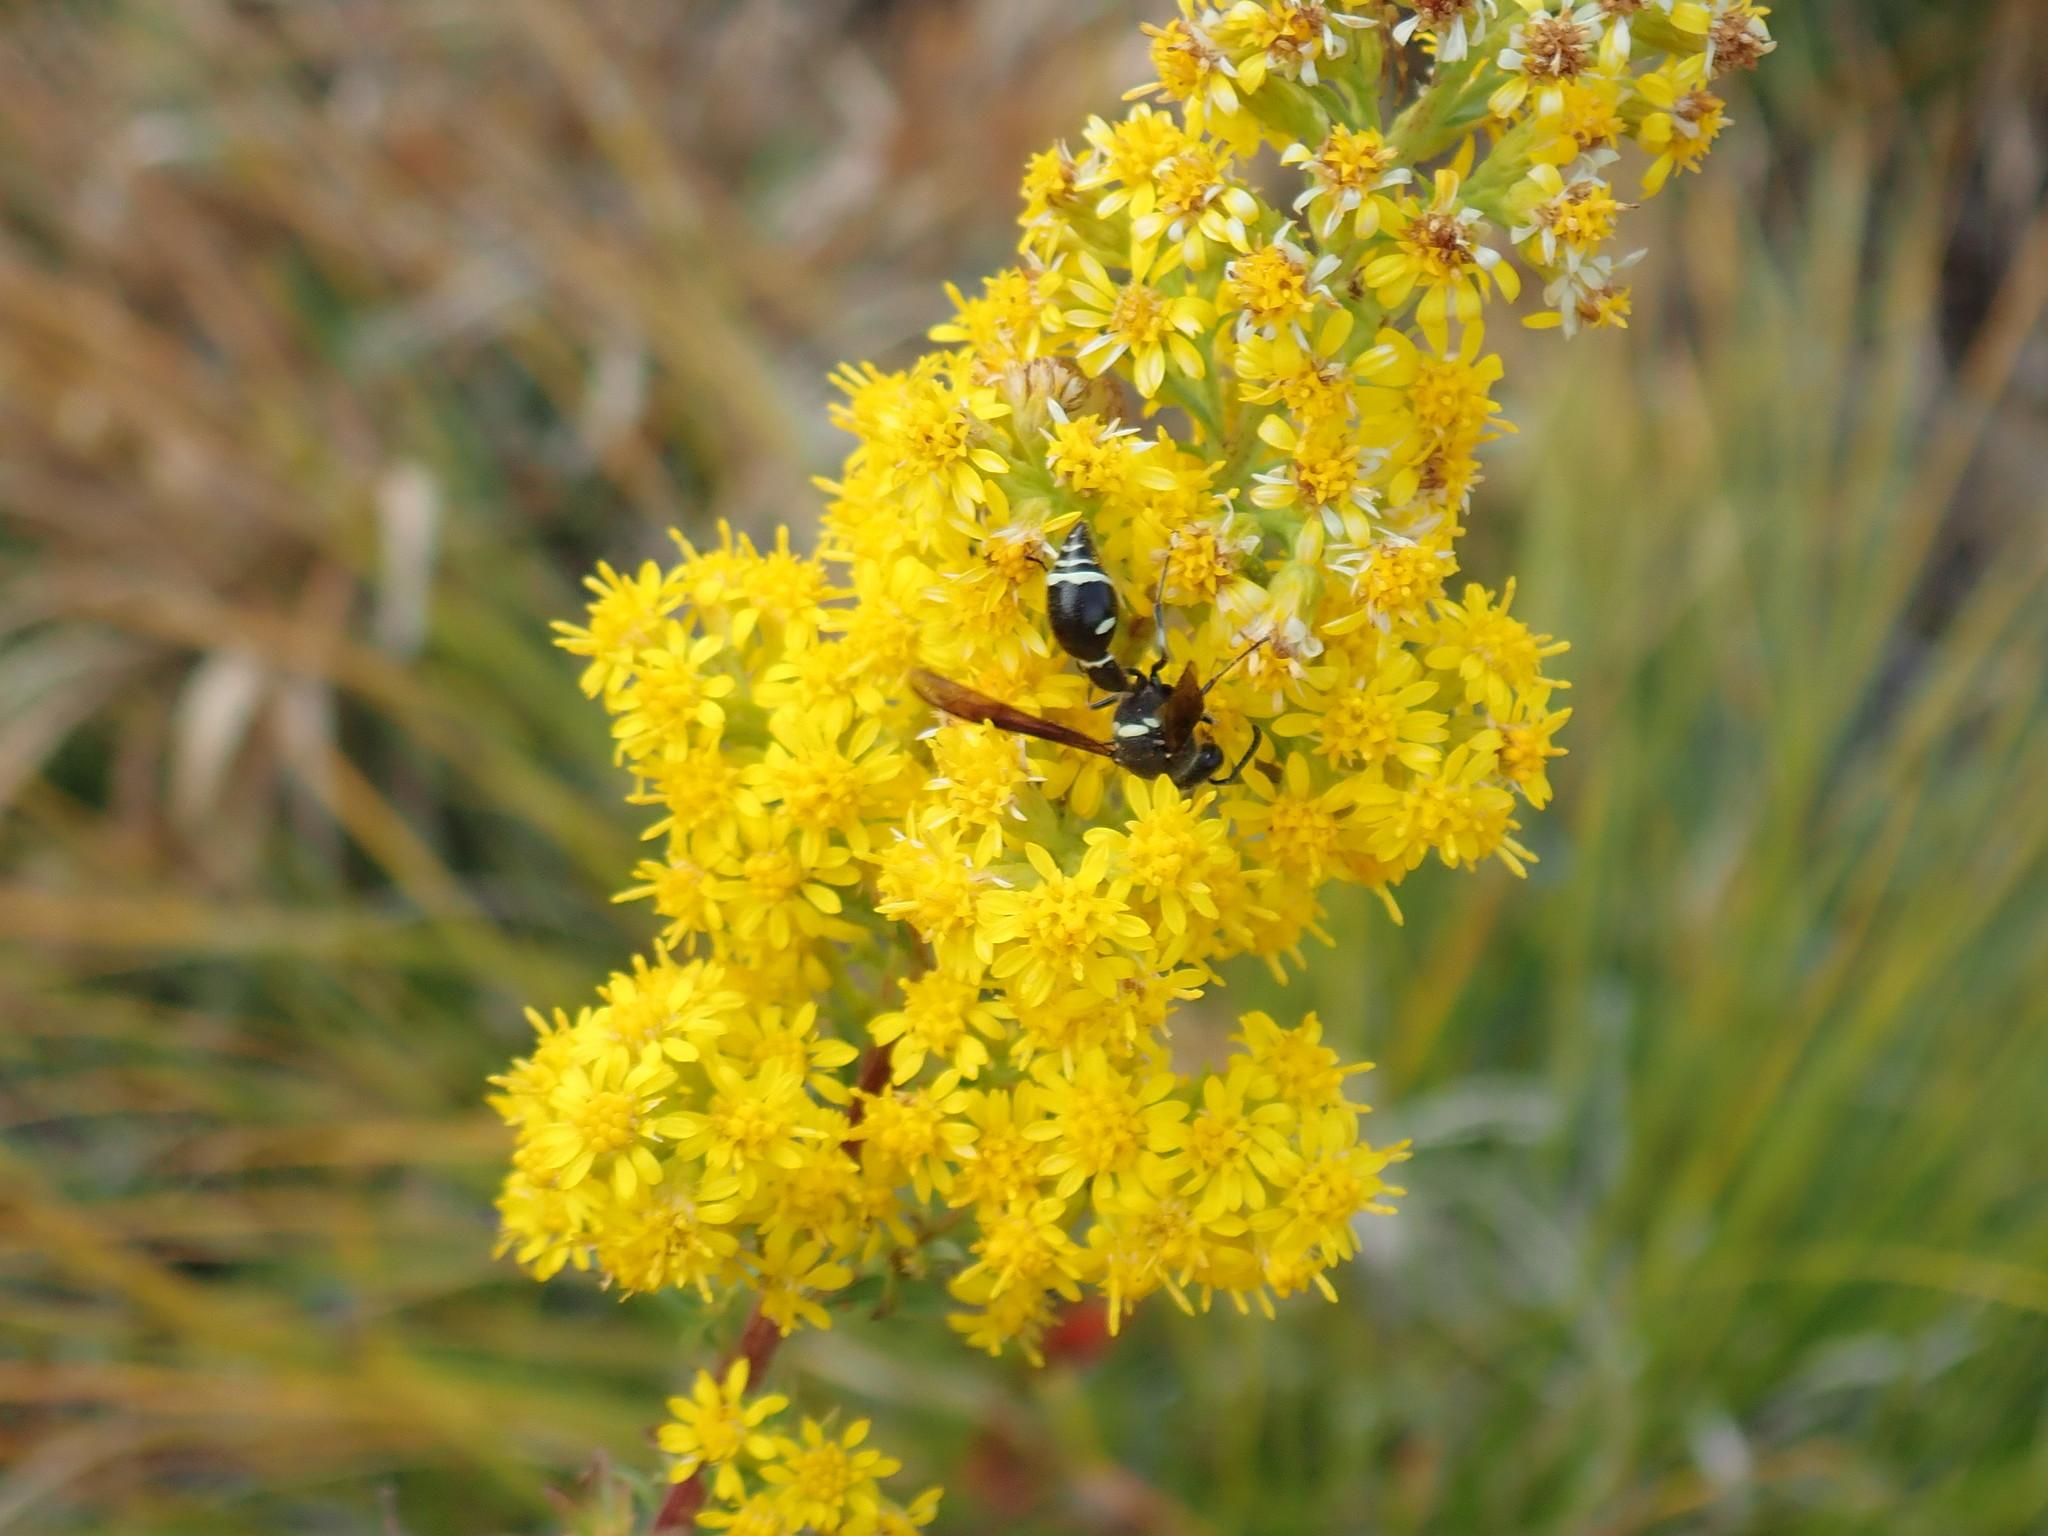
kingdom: Animalia
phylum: Arthropoda
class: Insecta
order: Hymenoptera
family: Vespidae
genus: Eumenes
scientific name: Eumenes fraternus
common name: Fraternal potter wasp
